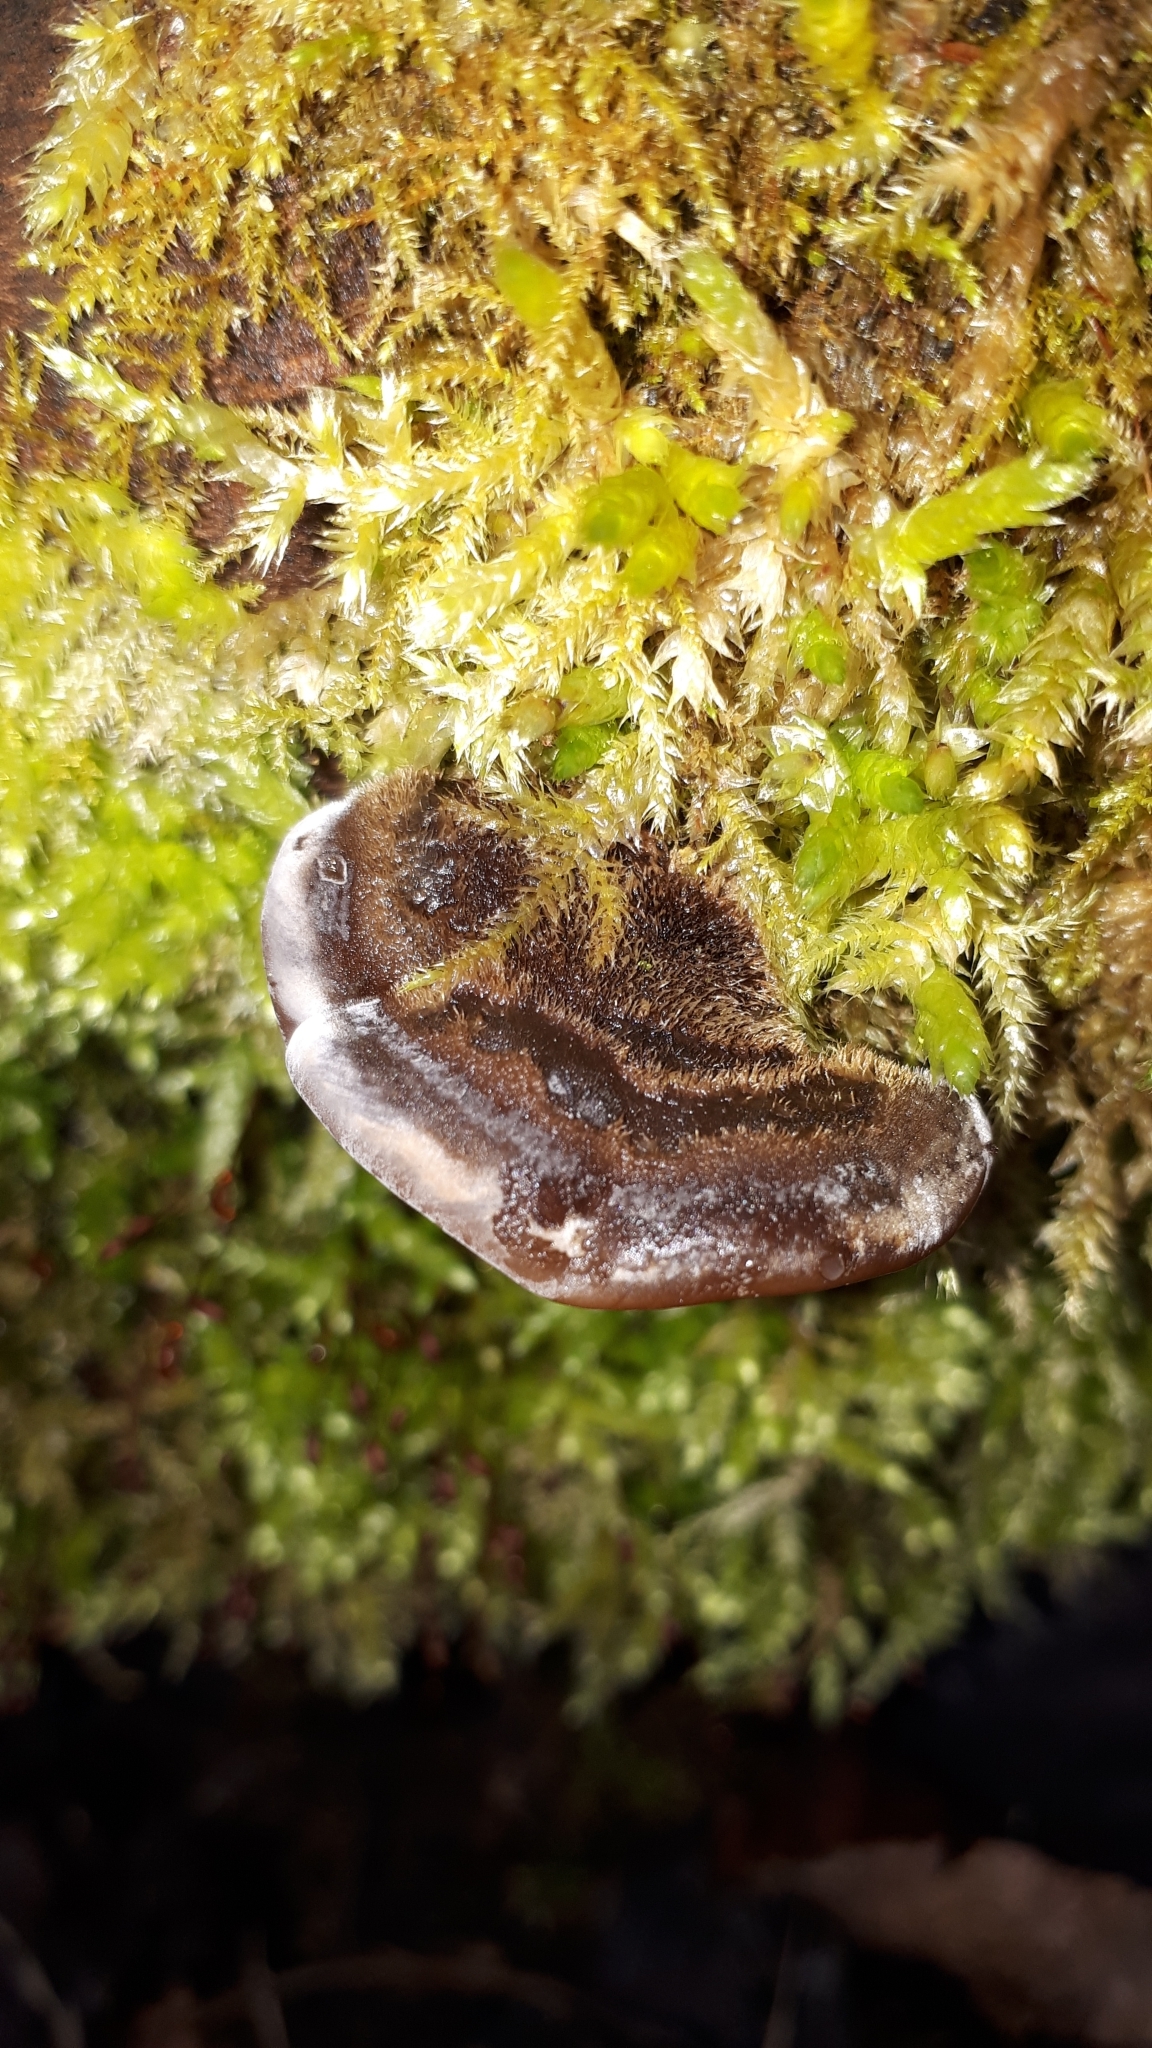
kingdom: Fungi
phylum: Basidiomycota
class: Agaricomycetes
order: Auriculariales
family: Auriculariaceae
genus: Auricularia
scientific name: Auricularia mesenterica
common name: Tripe fungus
